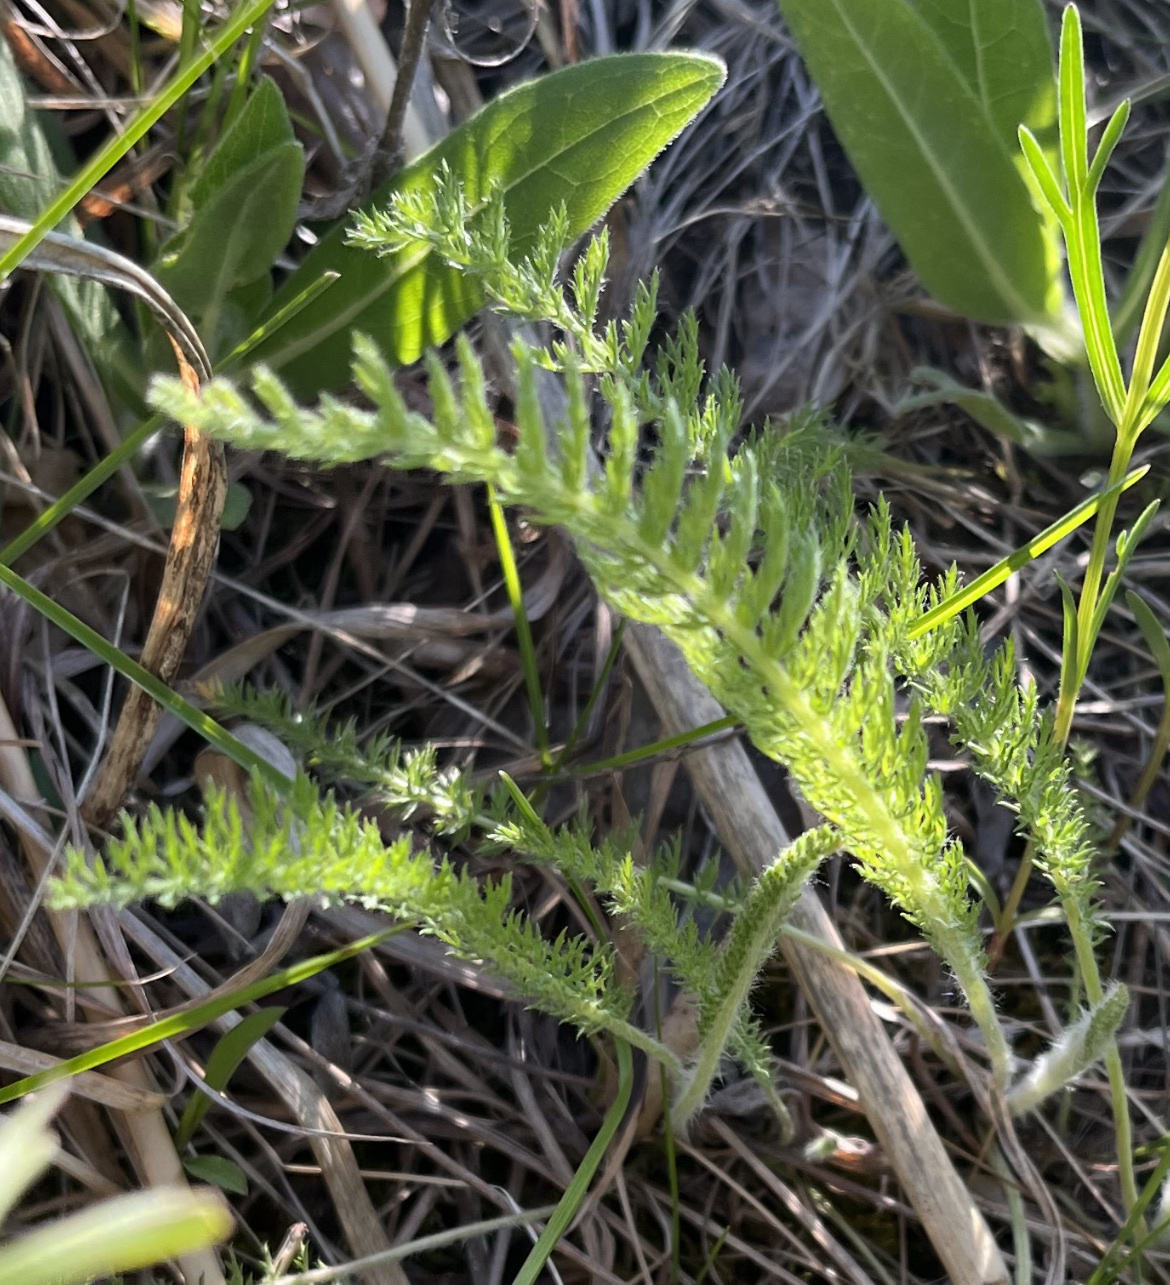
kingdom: Plantae
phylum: Tracheophyta
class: Magnoliopsida
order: Asterales
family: Asteraceae
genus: Achillea
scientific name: Achillea millefolium
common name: Yarrow
